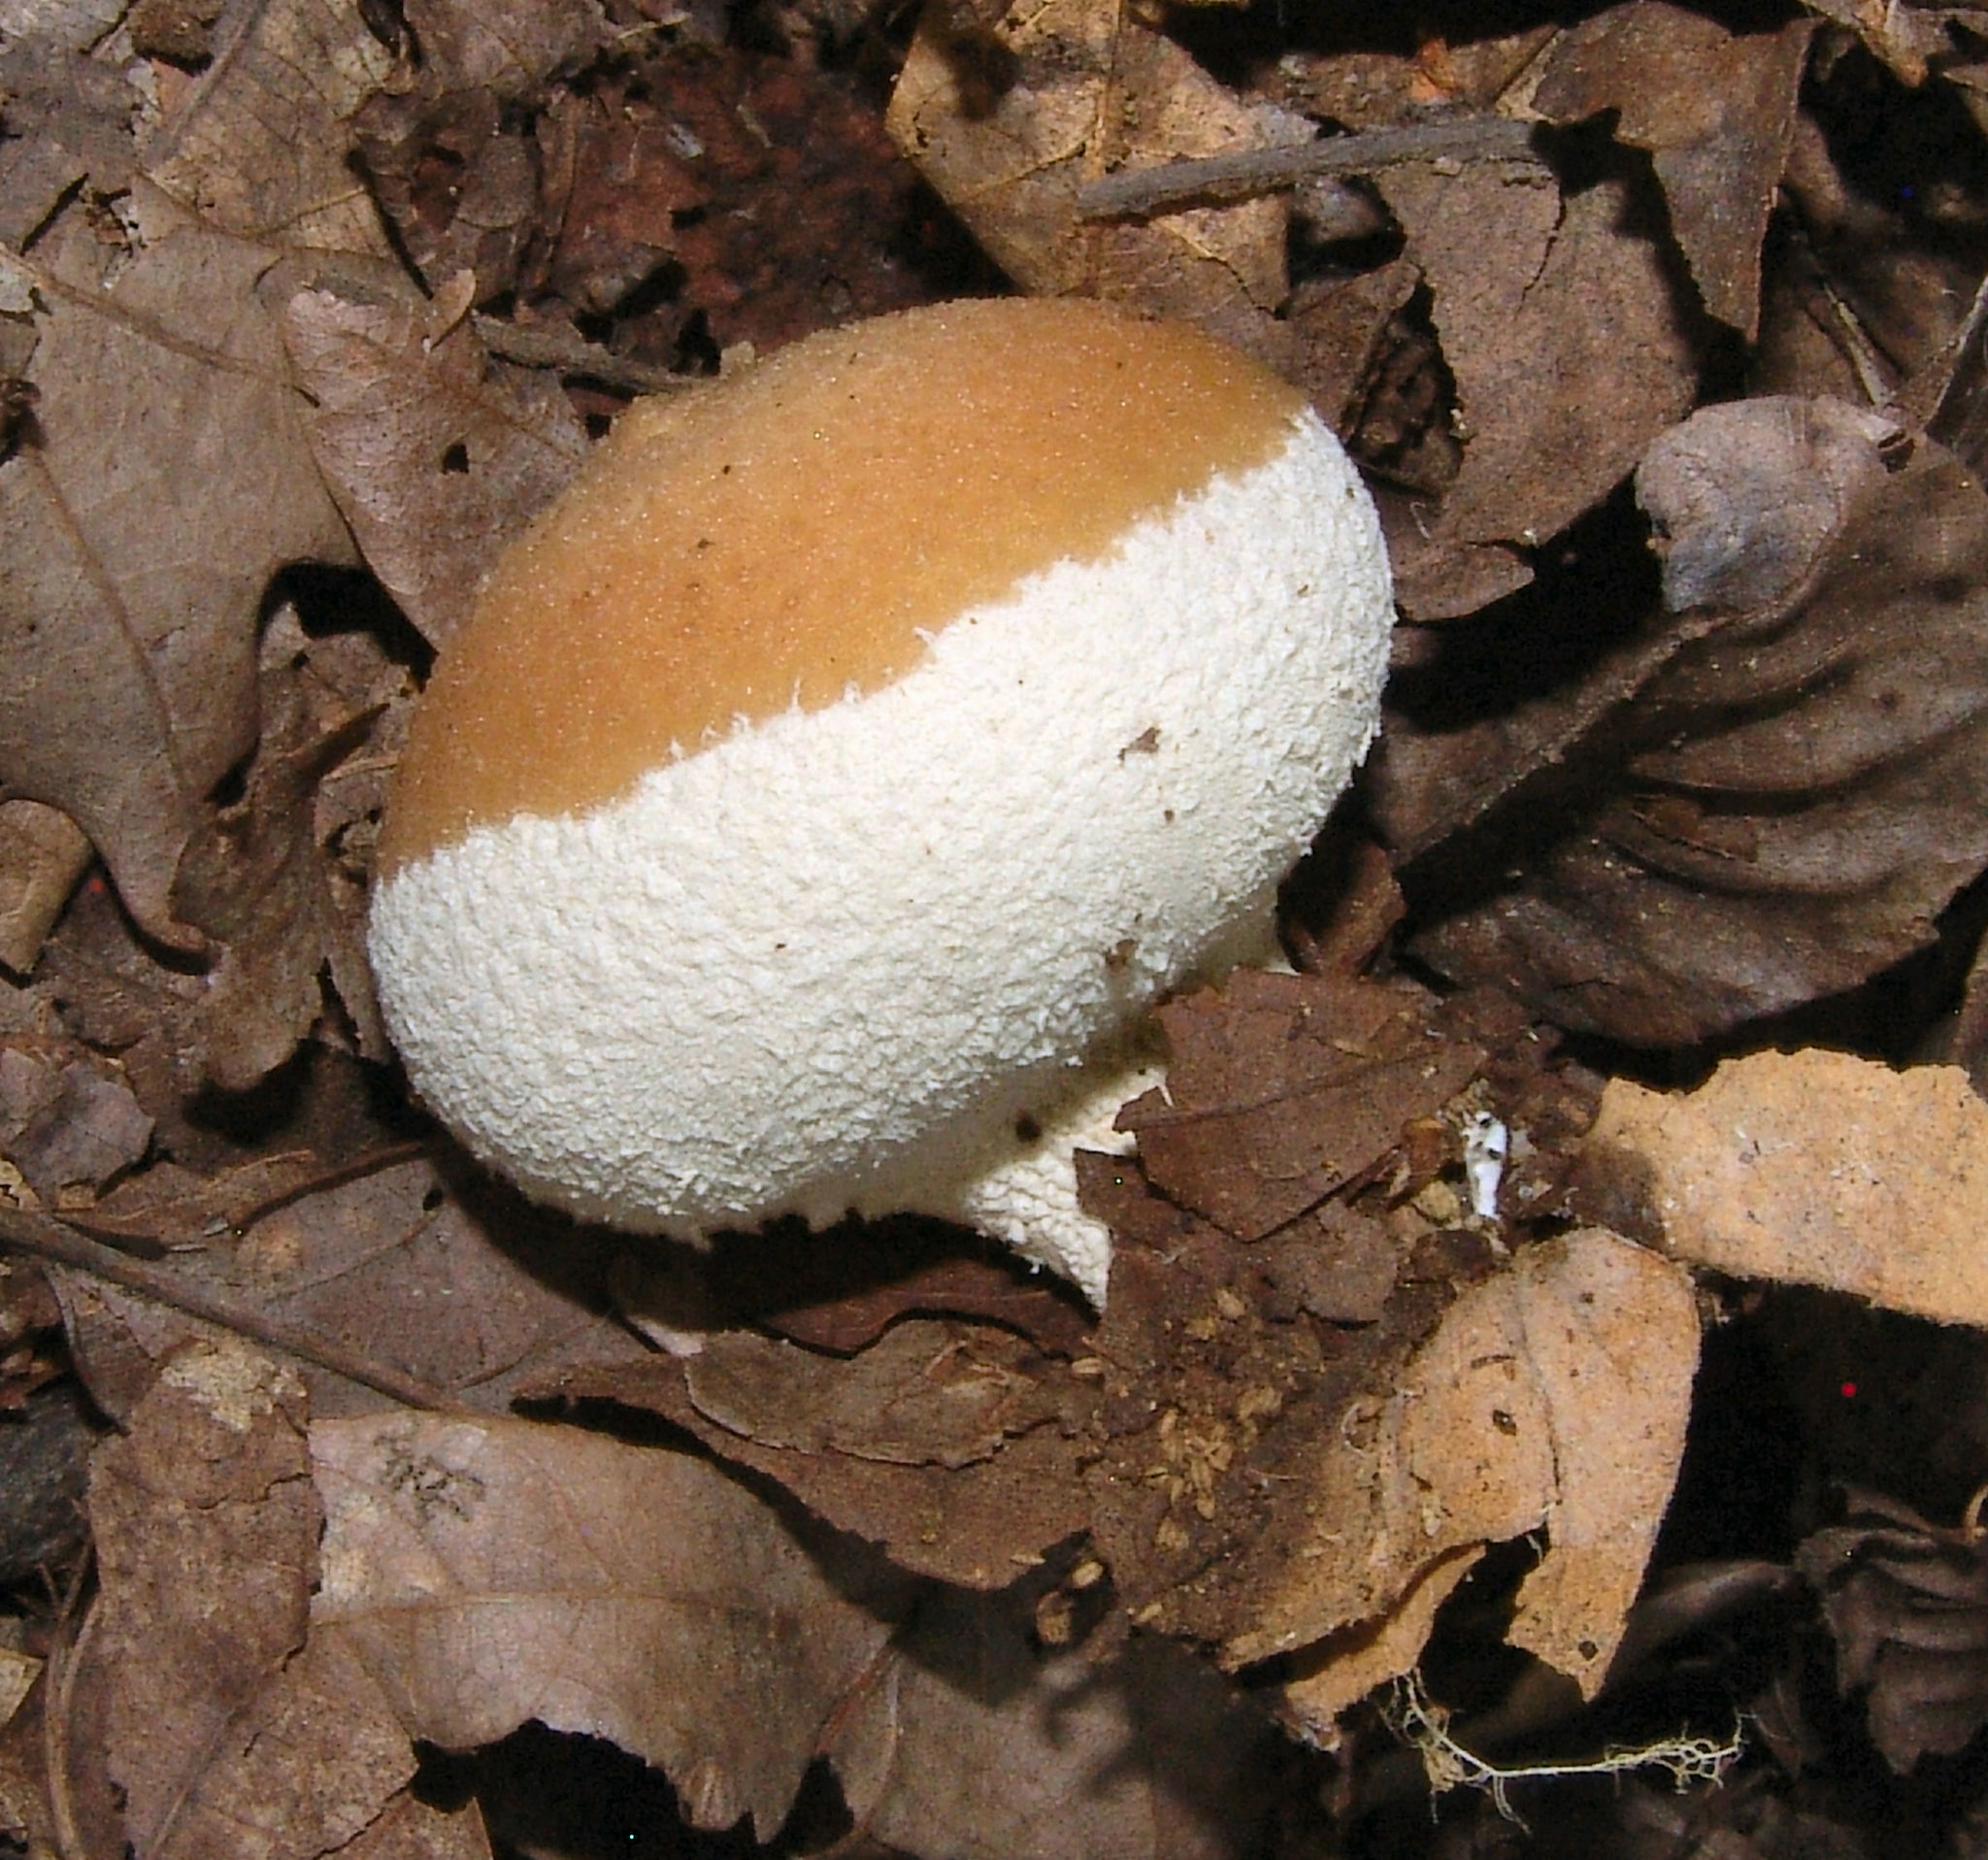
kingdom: Fungi
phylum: Basidiomycota
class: Agaricomycetes
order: Agaricales
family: Agaricaceae
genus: Lycoperdon
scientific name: Lycoperdon marginatum
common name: Peeling puffball
